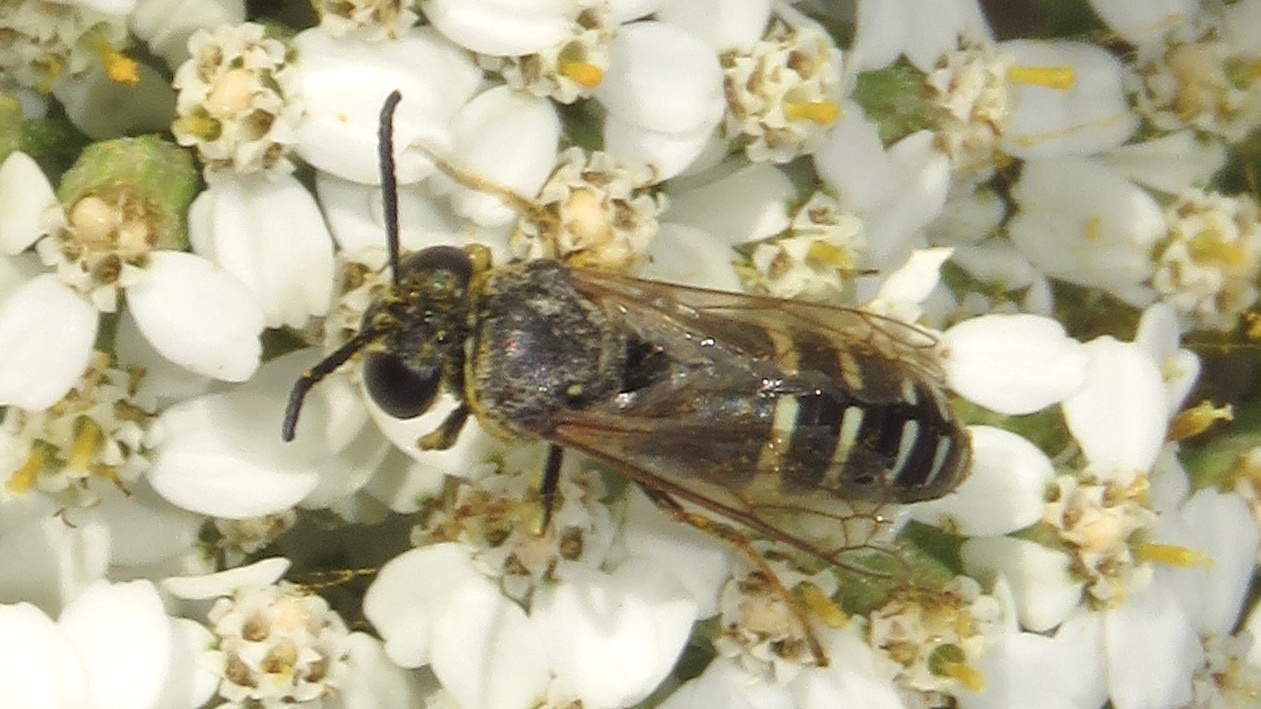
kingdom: Animalia
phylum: Arthropoda
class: Insecta
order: Hymenoptera
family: Crabronidae
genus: Bicyrtes
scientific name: Bicyrtes ventralis
